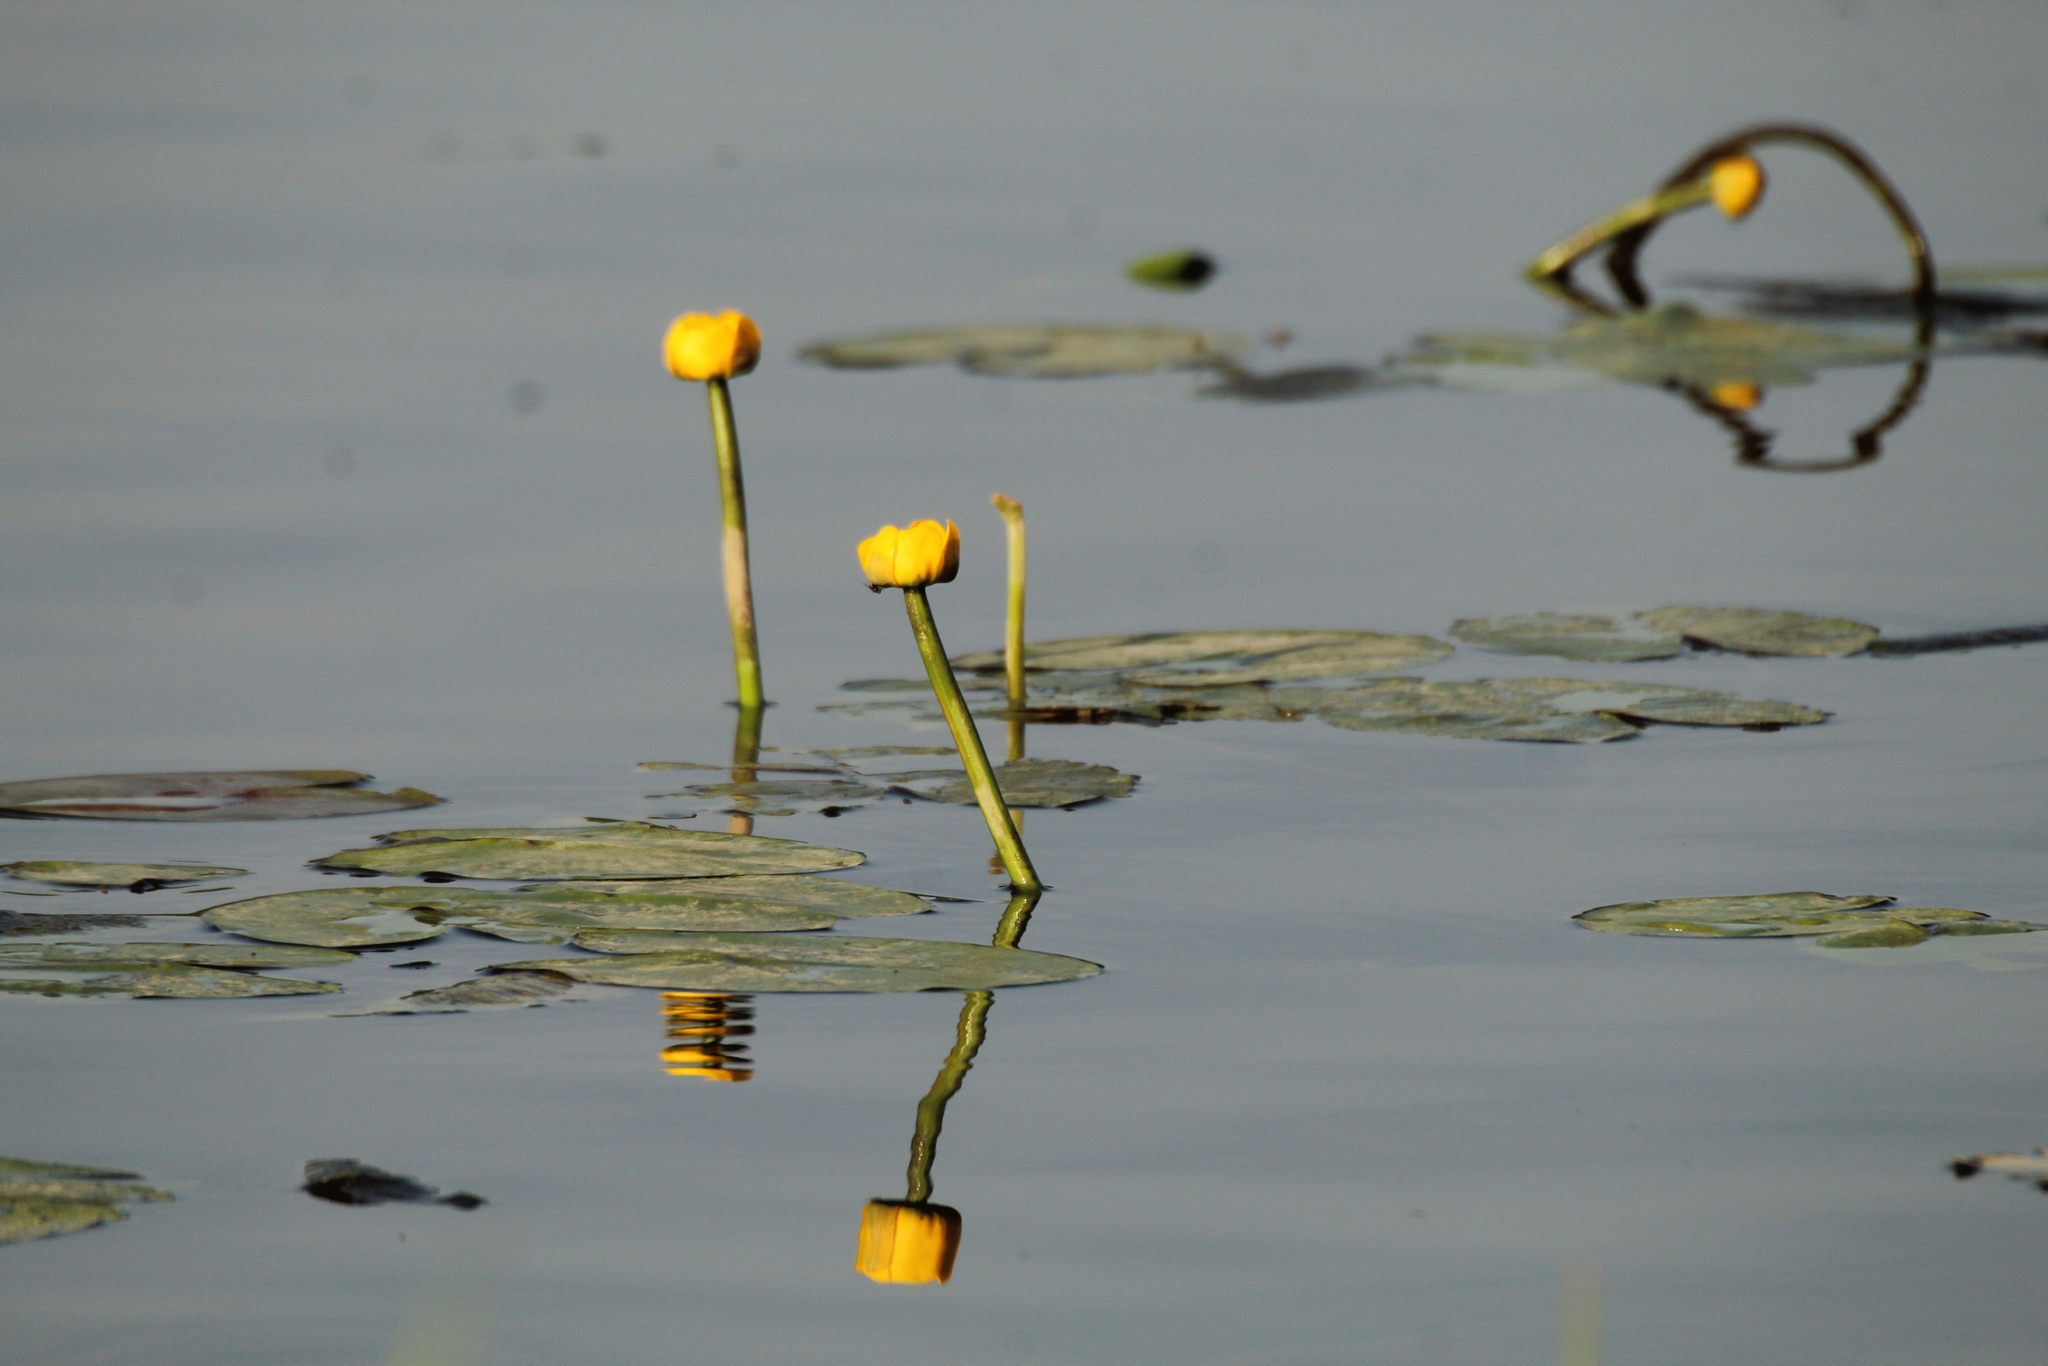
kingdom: Plantae
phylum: Tracheophyta
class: Magnoliopsida
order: Nymphaeales
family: Nymphaeaceae
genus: Nuphar
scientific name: Nuphar lutea
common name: Yellow water-lily
